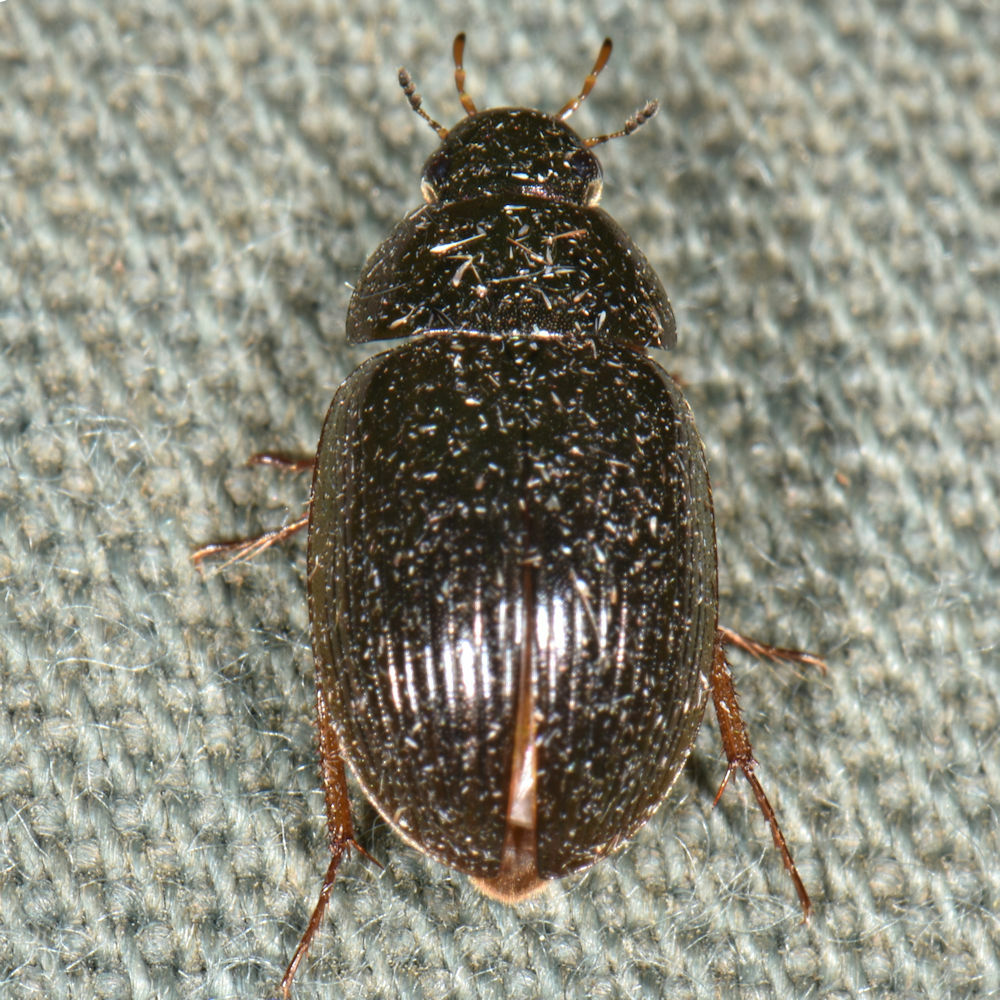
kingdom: Animalia
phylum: Arthropoda
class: Insecta
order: Coleoptera
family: Hydrophilidae
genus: Hydrobius
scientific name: Hydrobius fuscipes
